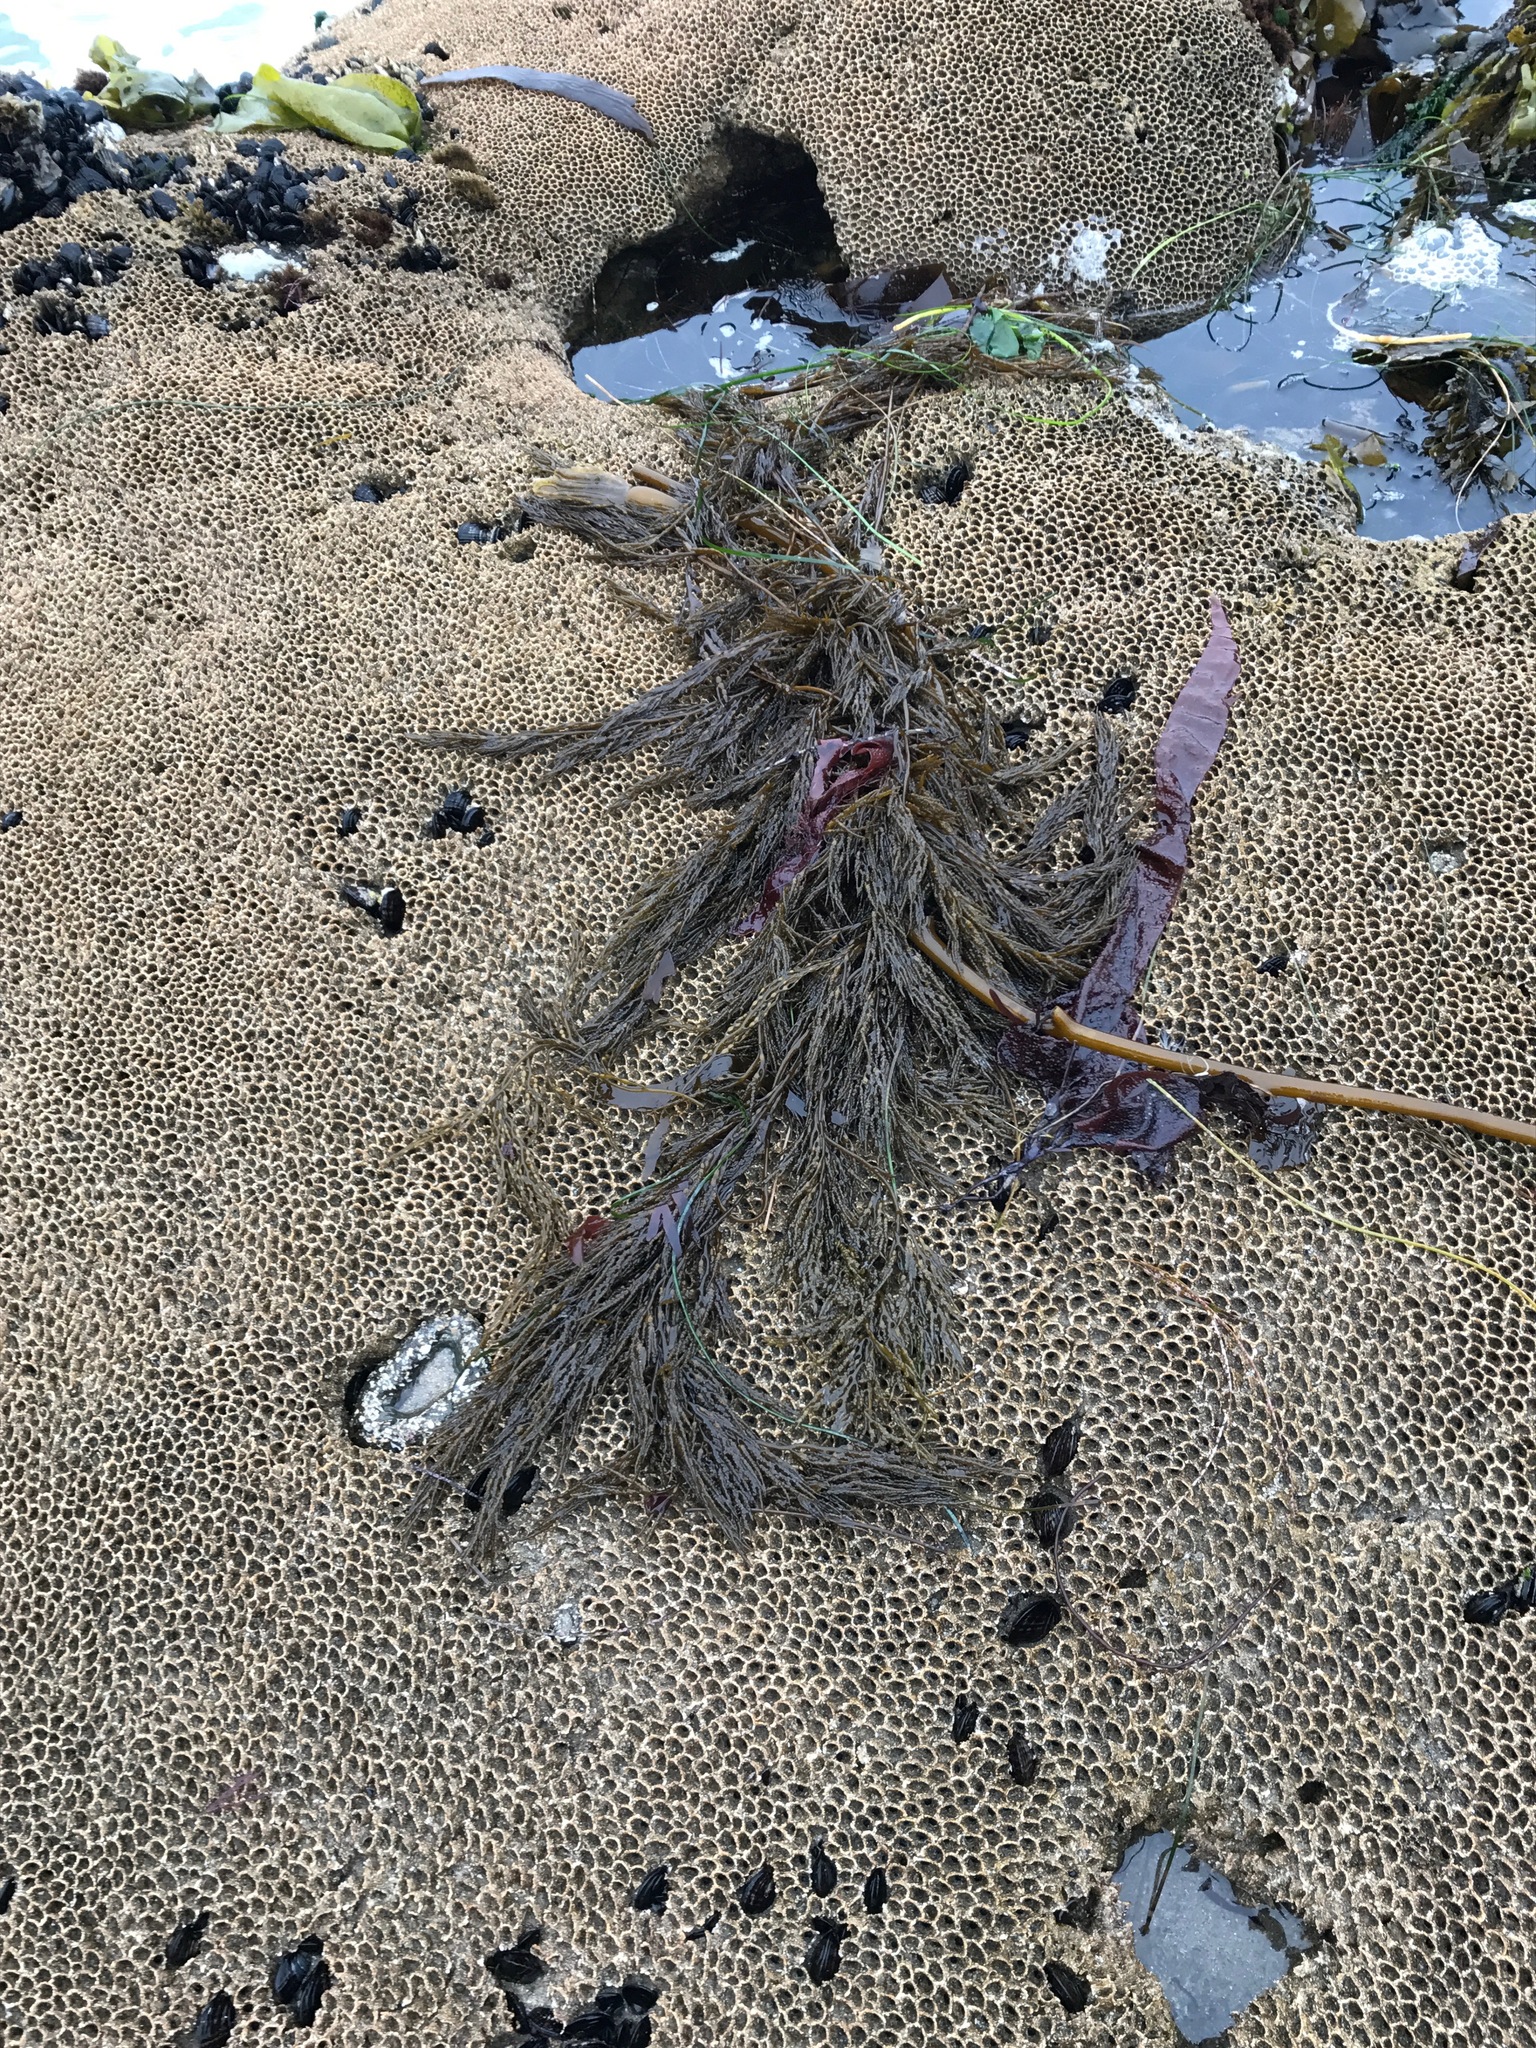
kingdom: Chromista
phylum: Ochrophyta
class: Phaeophyceae
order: Fucales
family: Sargassaceae
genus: Stephanocystis
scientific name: Stephanocystis
